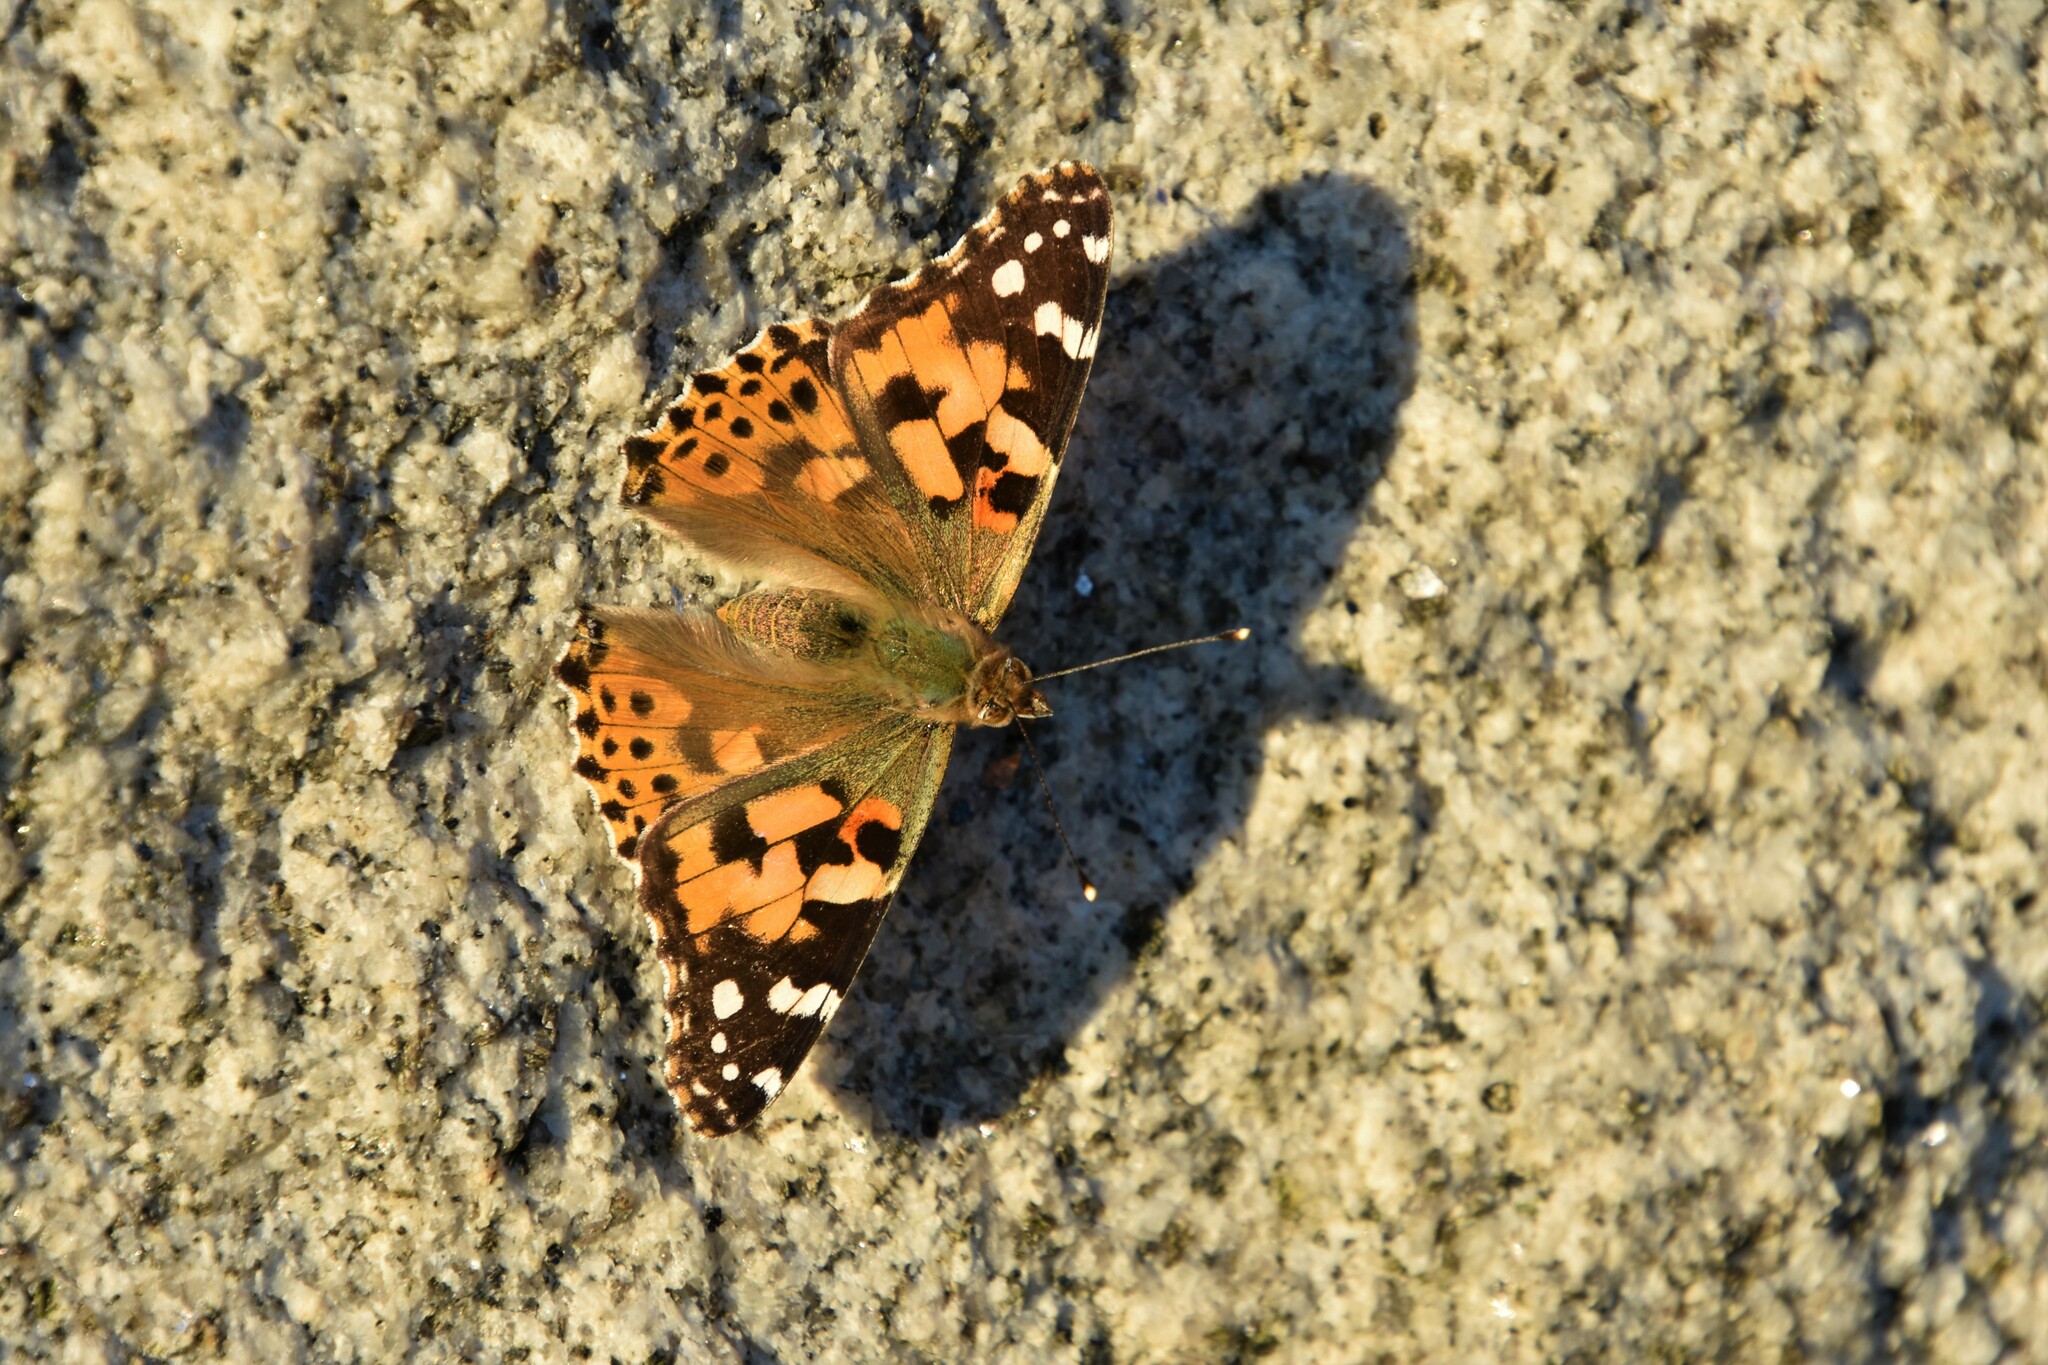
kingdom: Animalia
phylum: Arthropoda
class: Insecta
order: Lepidoptera
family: Nymphalidae
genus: Vanessa
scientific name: Vanessa cardui
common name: Painted lady
